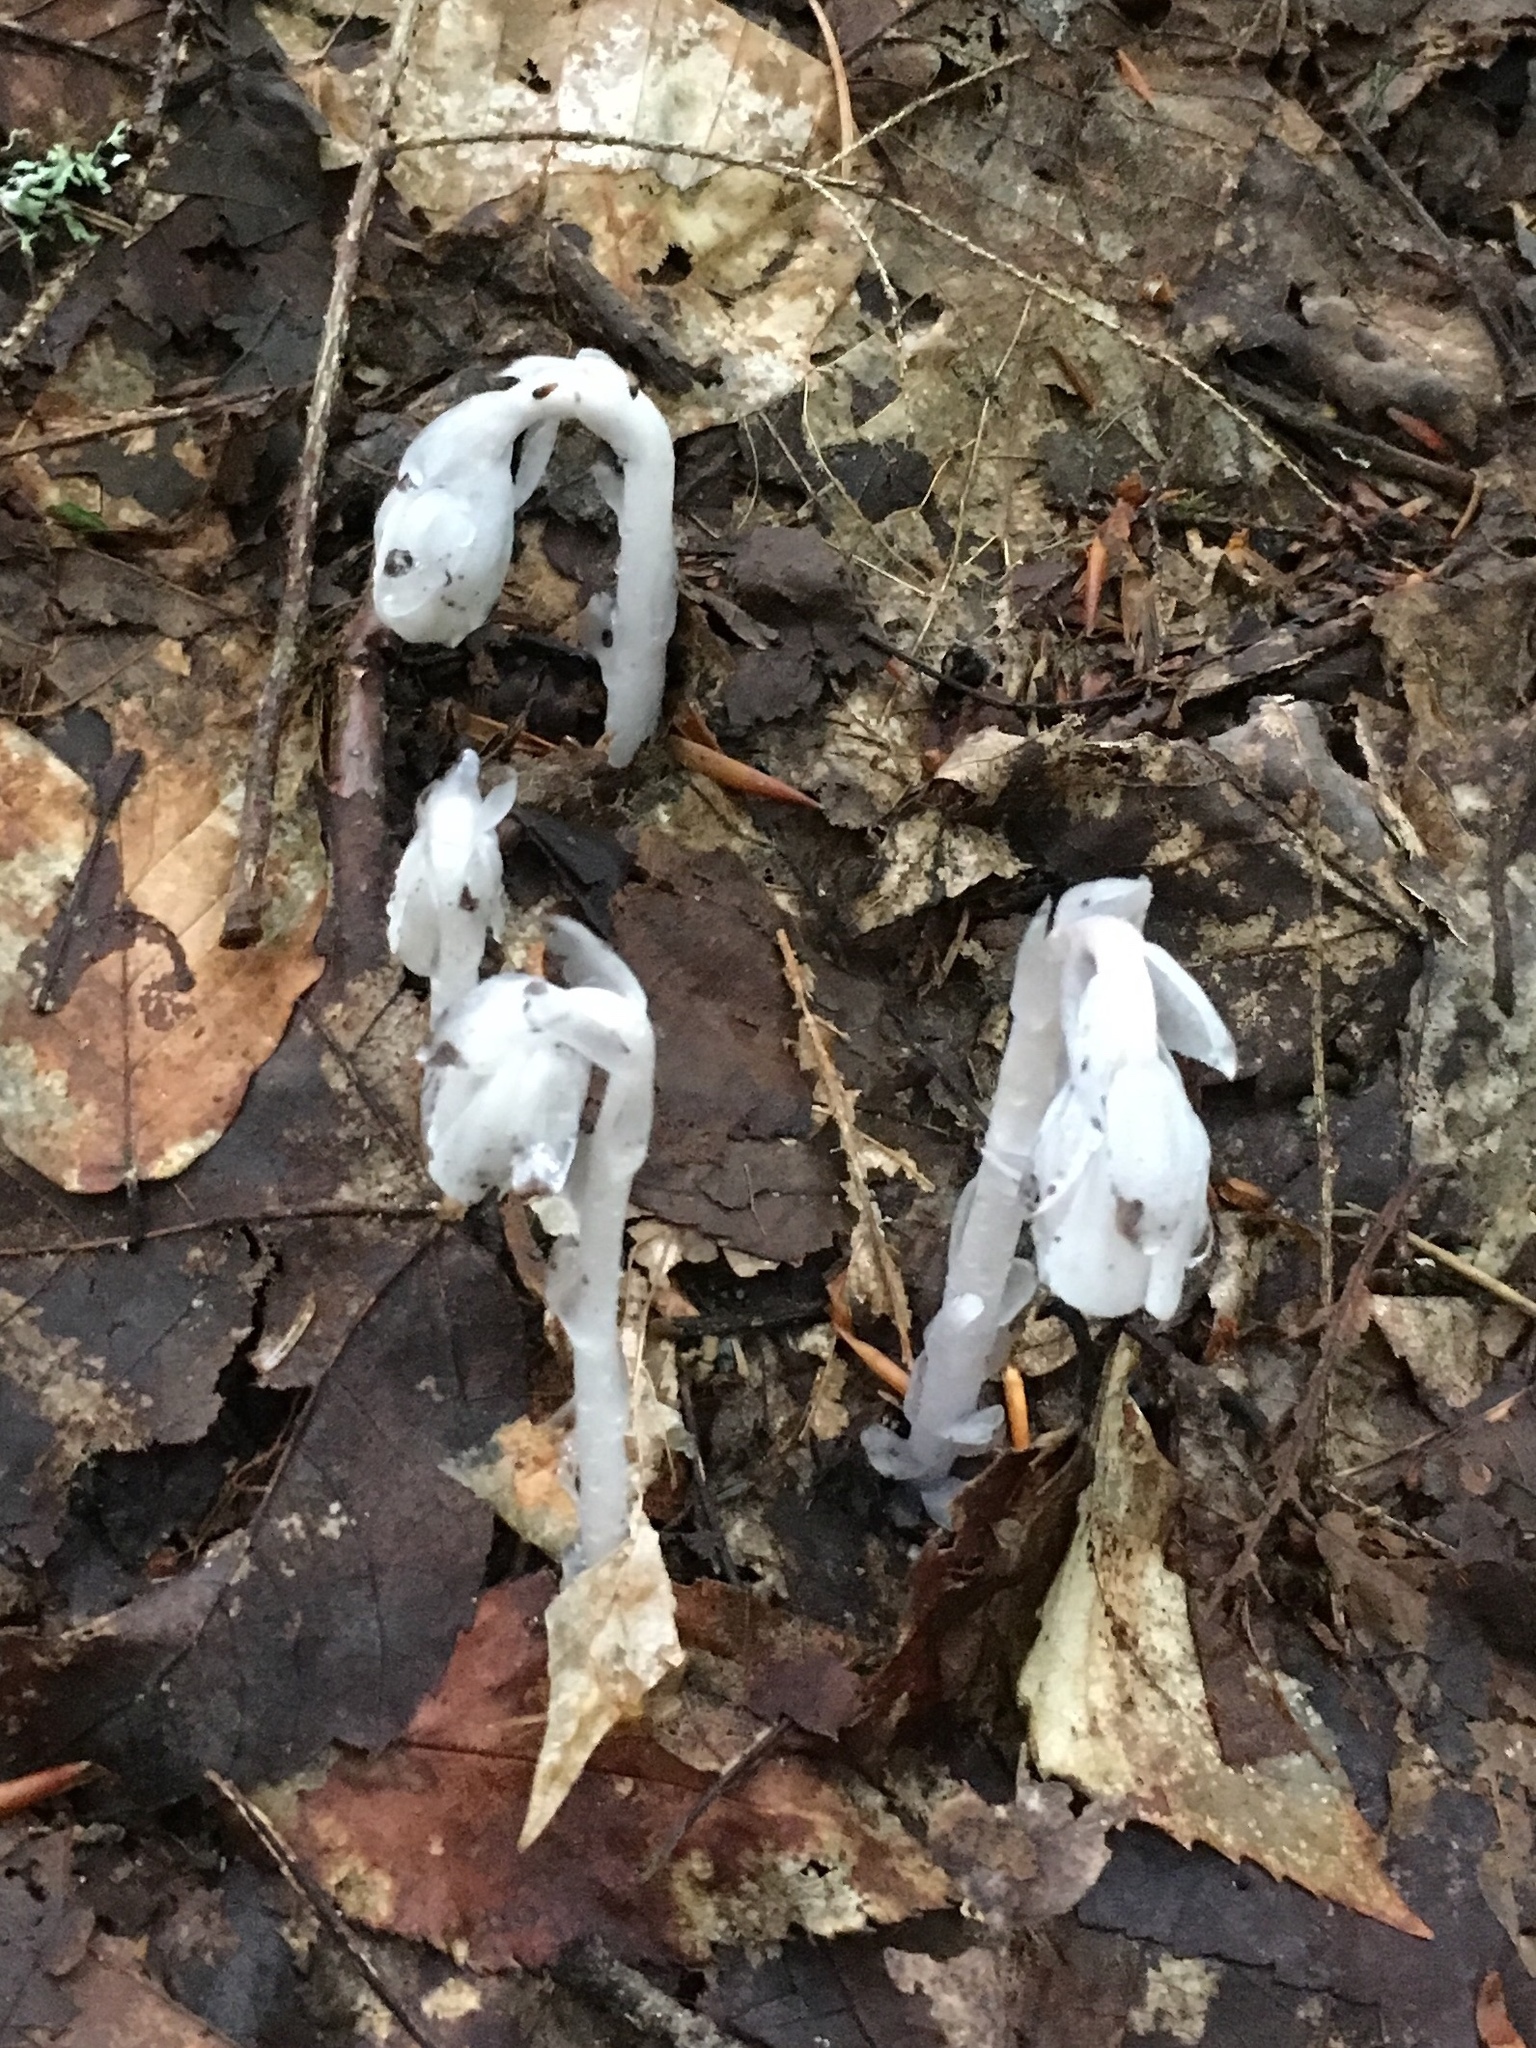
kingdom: Plantae
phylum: Tracheophyta
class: Magnoliopsida
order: Ericales
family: Ericaceae
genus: Monotropa
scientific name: Monotropa uniflora
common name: Convulsion root
